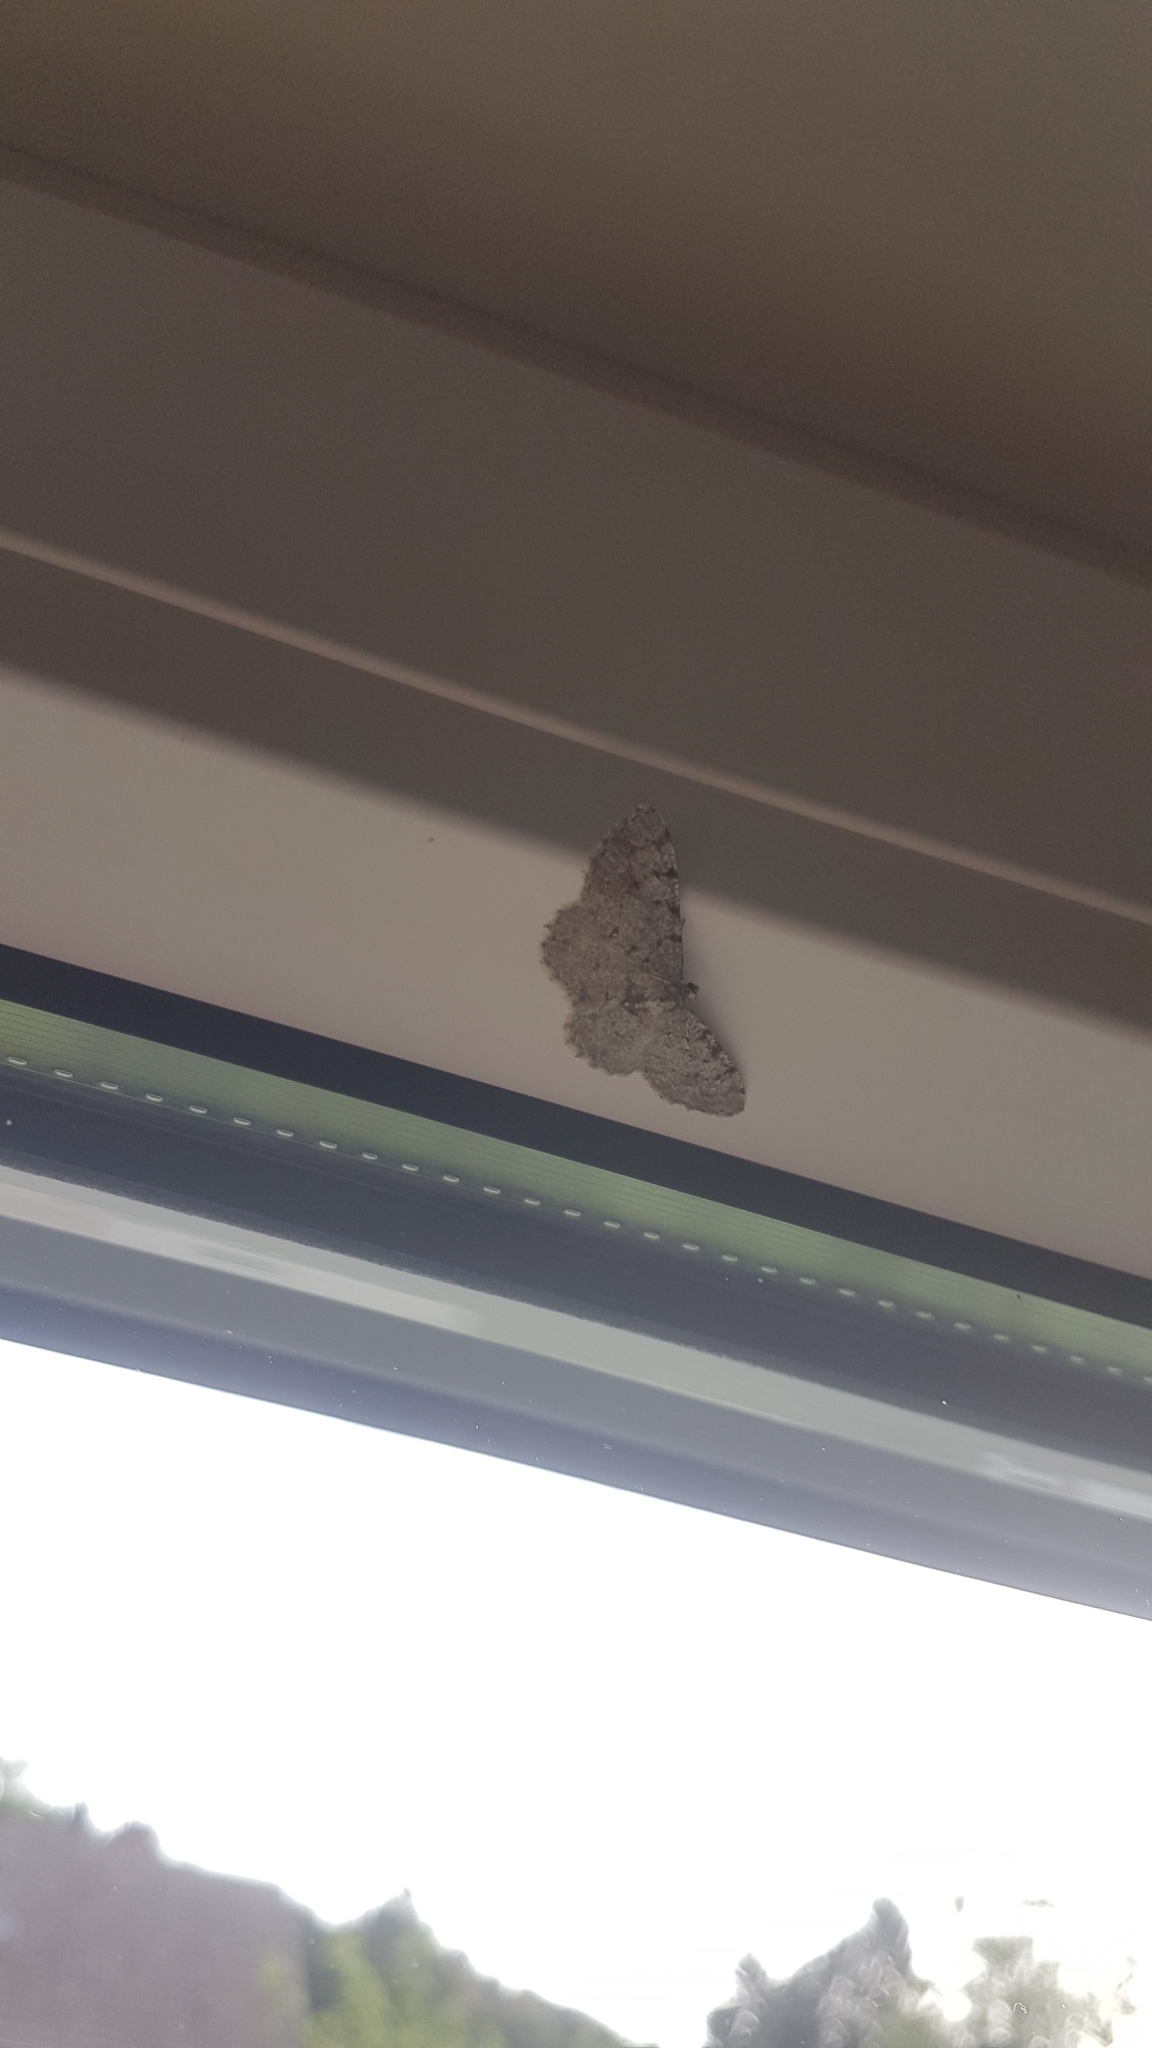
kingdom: Animalia
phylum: Arthropoda
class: Insecta
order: Lepidoptera
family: Geometridae
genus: Aethalura
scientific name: Aethalura punctulata
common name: Grey birch
